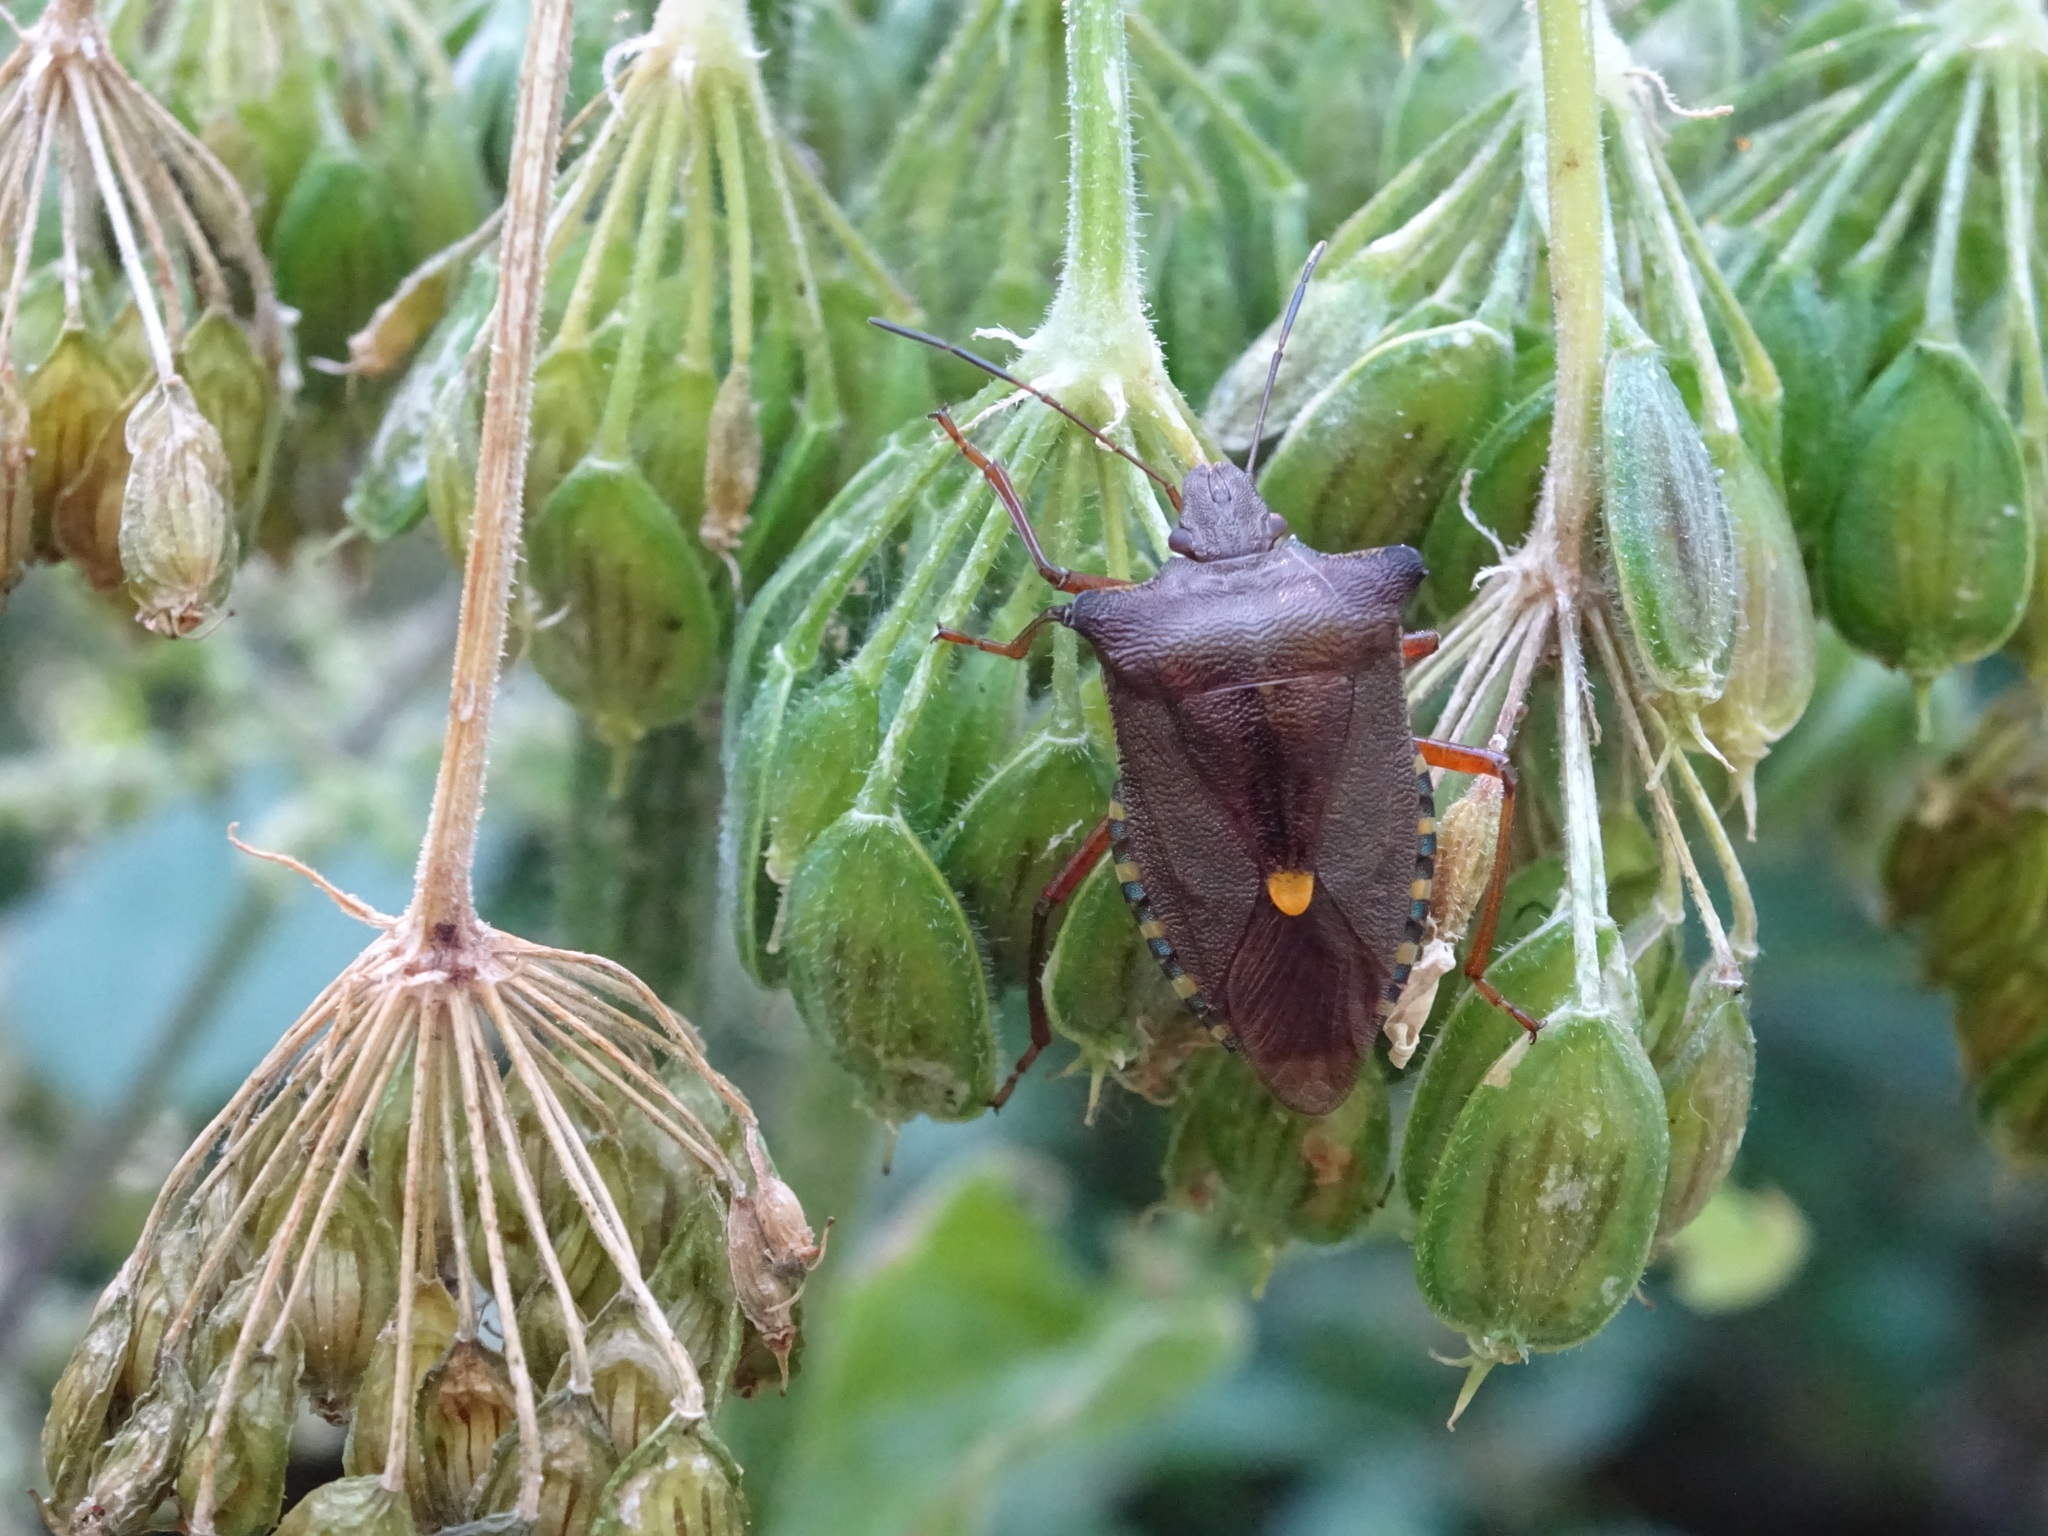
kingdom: Animalia
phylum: Arthropoda
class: Insecta
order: Hemiptera
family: Pentatomidae
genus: Pentatoma
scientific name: Pentatoma rufipes
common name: Forest bug
